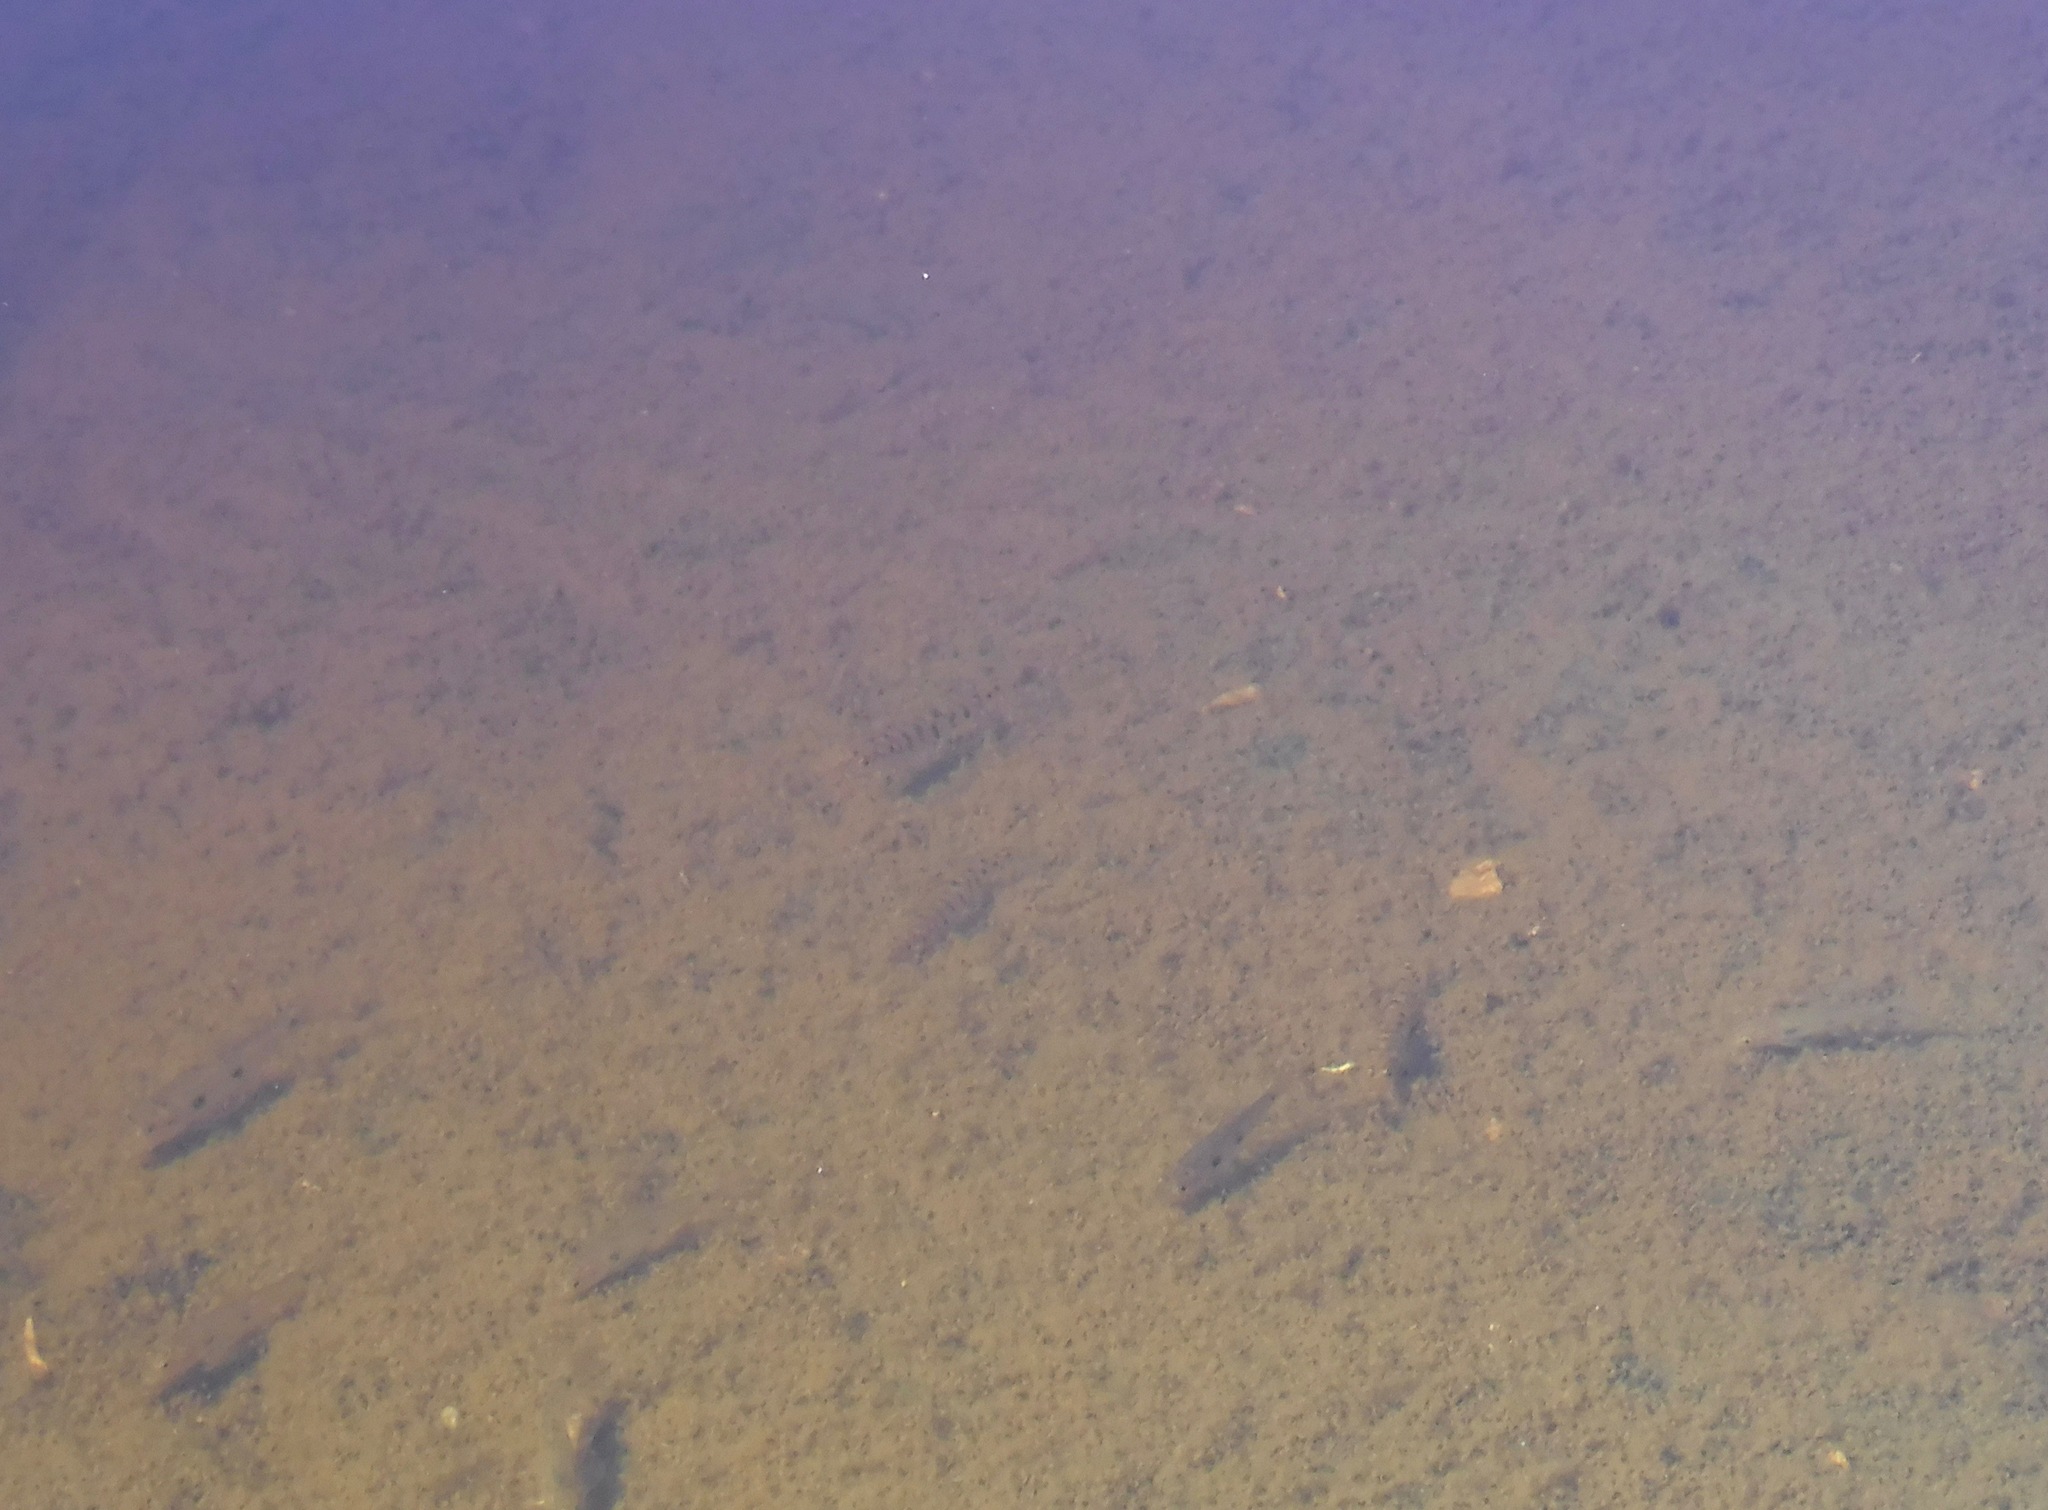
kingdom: Animalia
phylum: Chordata
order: Perciformes
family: Percidae
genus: Percina
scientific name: Percina caprodes
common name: Logperch
